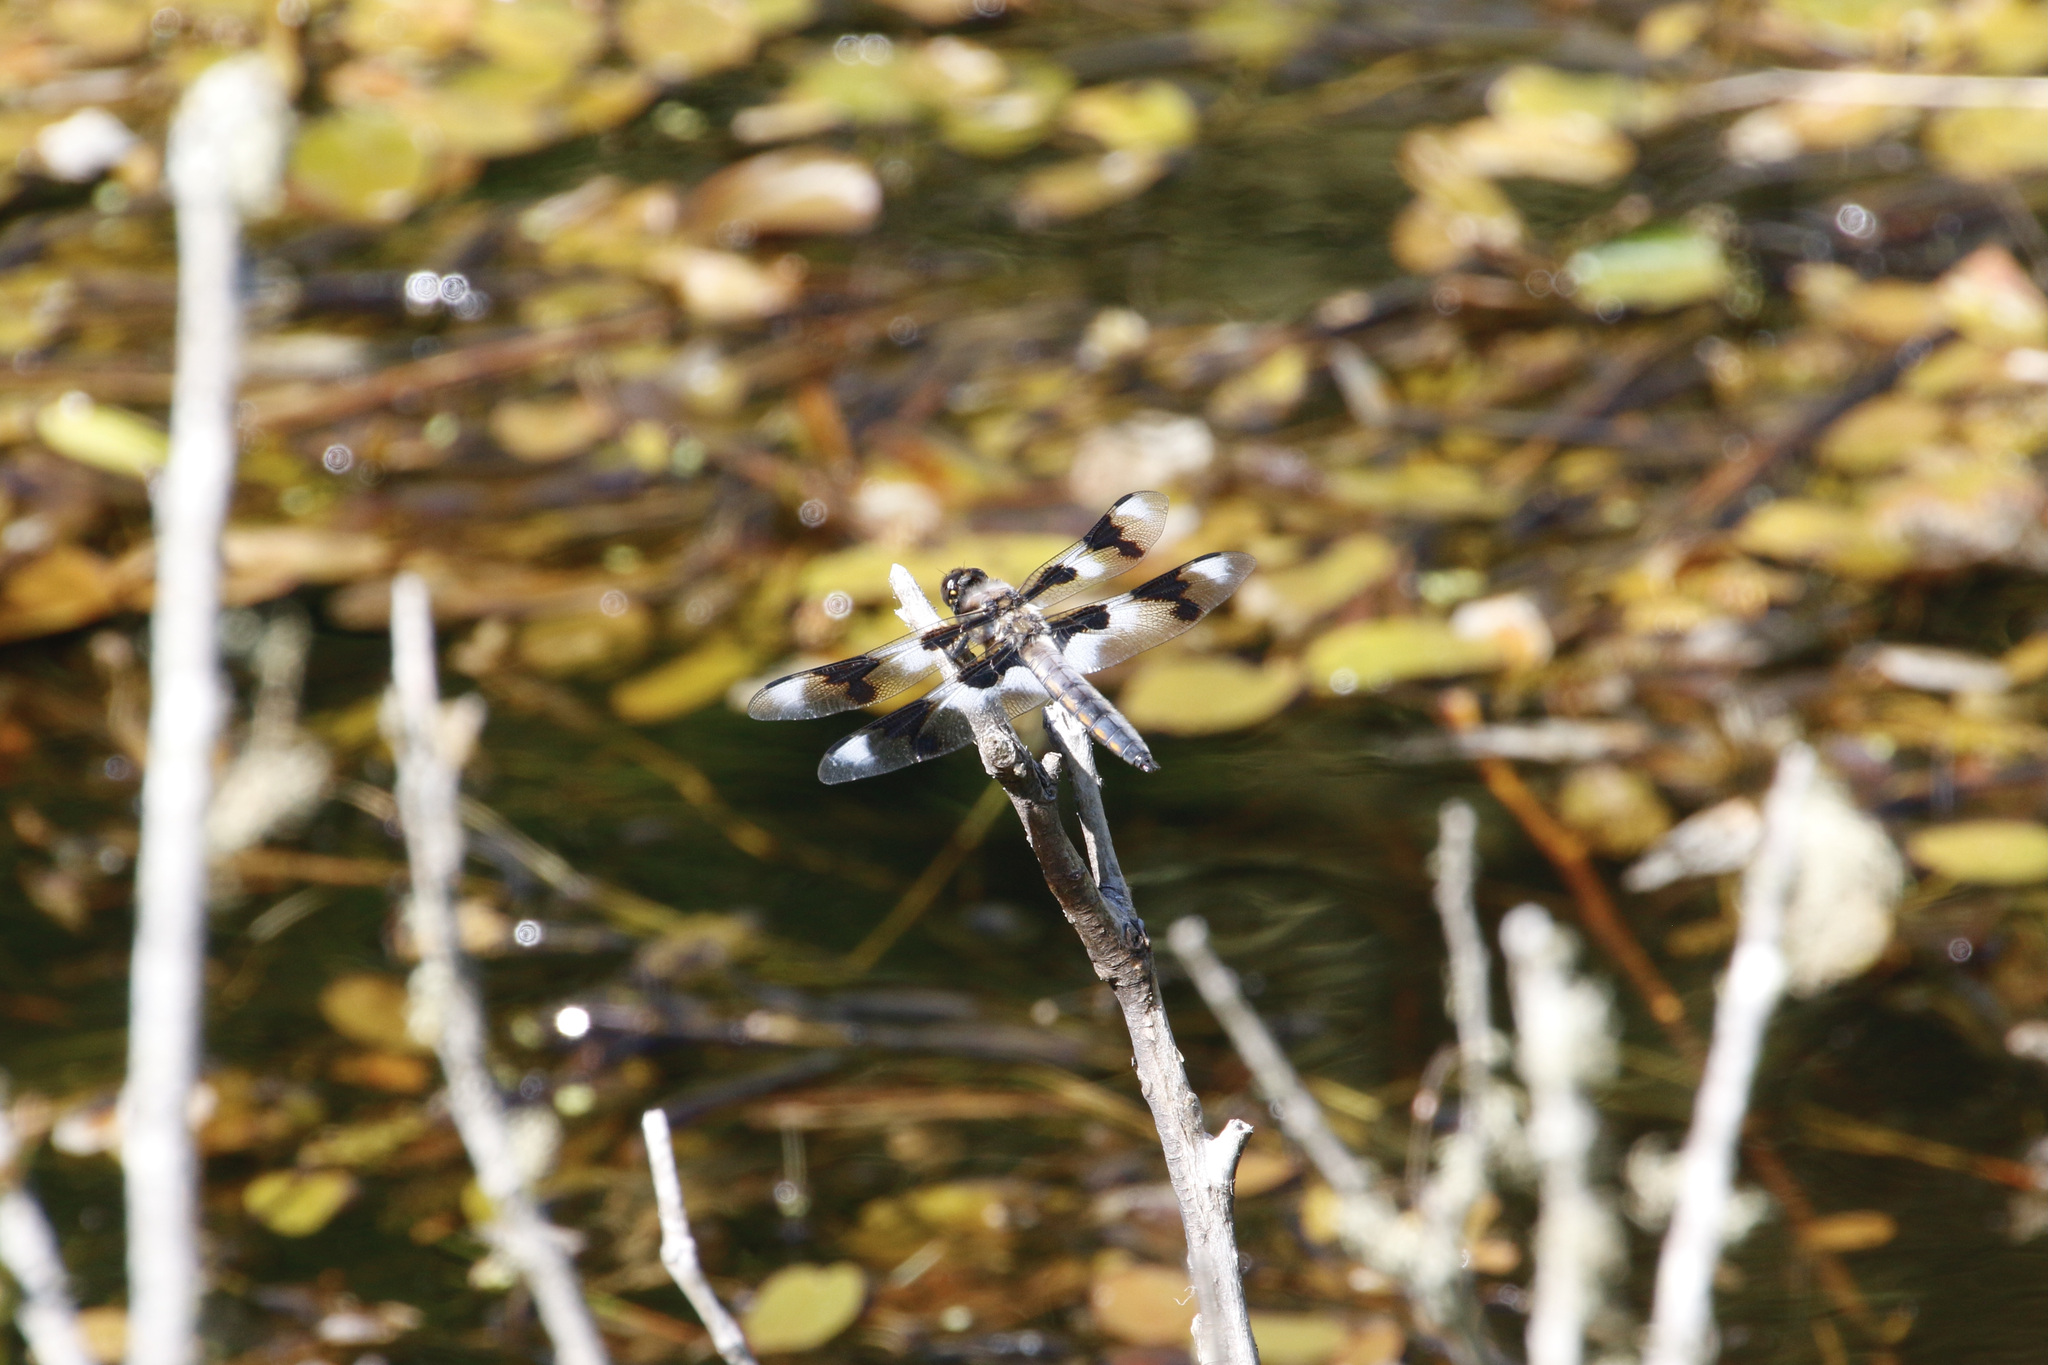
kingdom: Animalia
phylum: Arthropoda
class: Insecta
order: Odonata
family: Libellulidae
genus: Libellula
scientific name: Libellula forensis
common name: Eight-spotted skimmer
